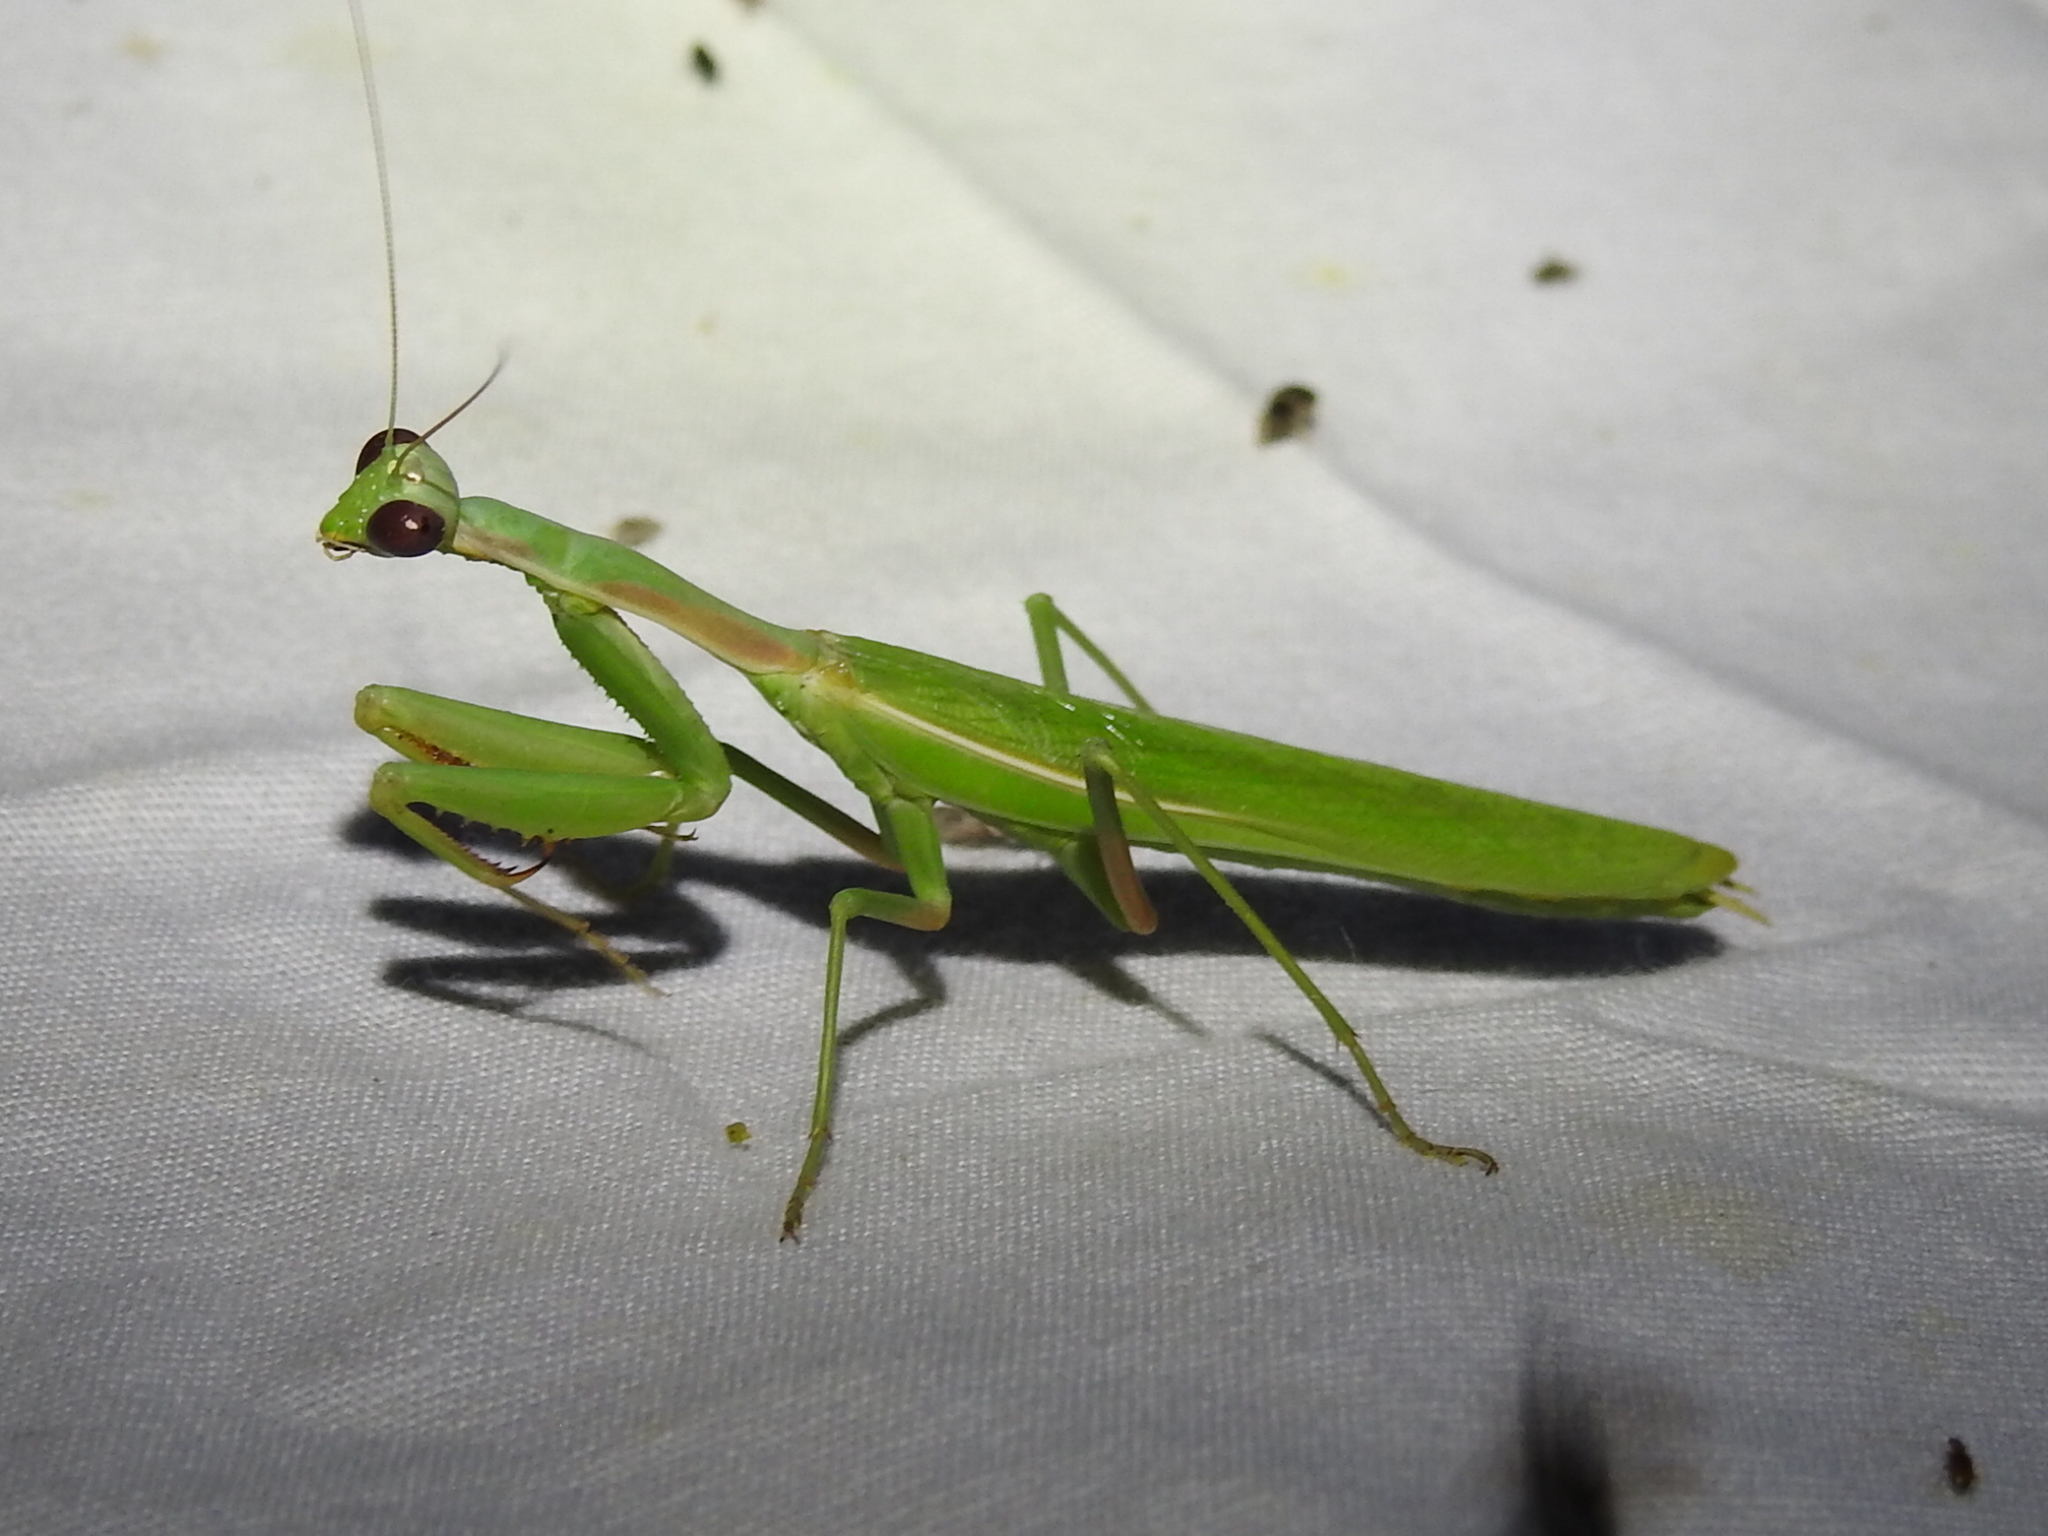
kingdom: Animalia
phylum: Arthropoda
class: Insecta
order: Mantodea
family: Eremiaphilidae
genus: Iris
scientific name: Iris oratoria
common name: Mediterranean mantis
